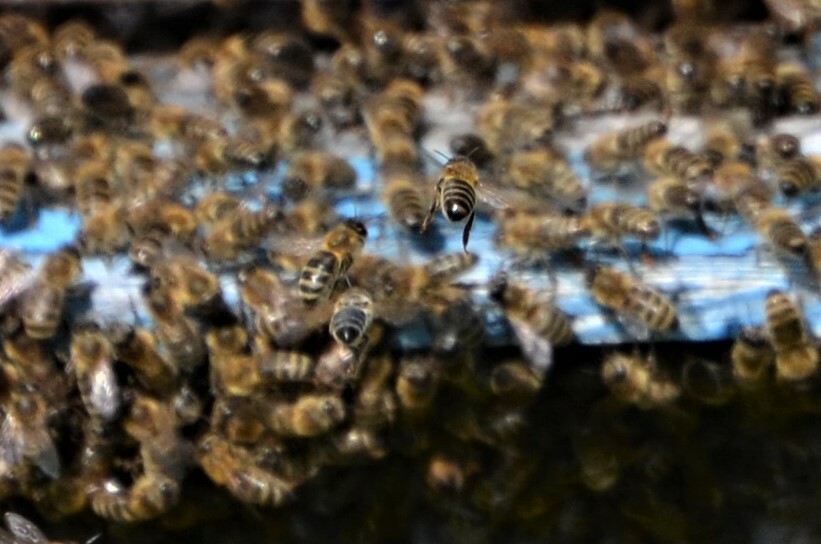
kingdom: Animalia
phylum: Arthropoda
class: Insecta
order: Hymenoptera
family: Apidae
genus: Apis
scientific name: Apis mellifera
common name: Honey bee
